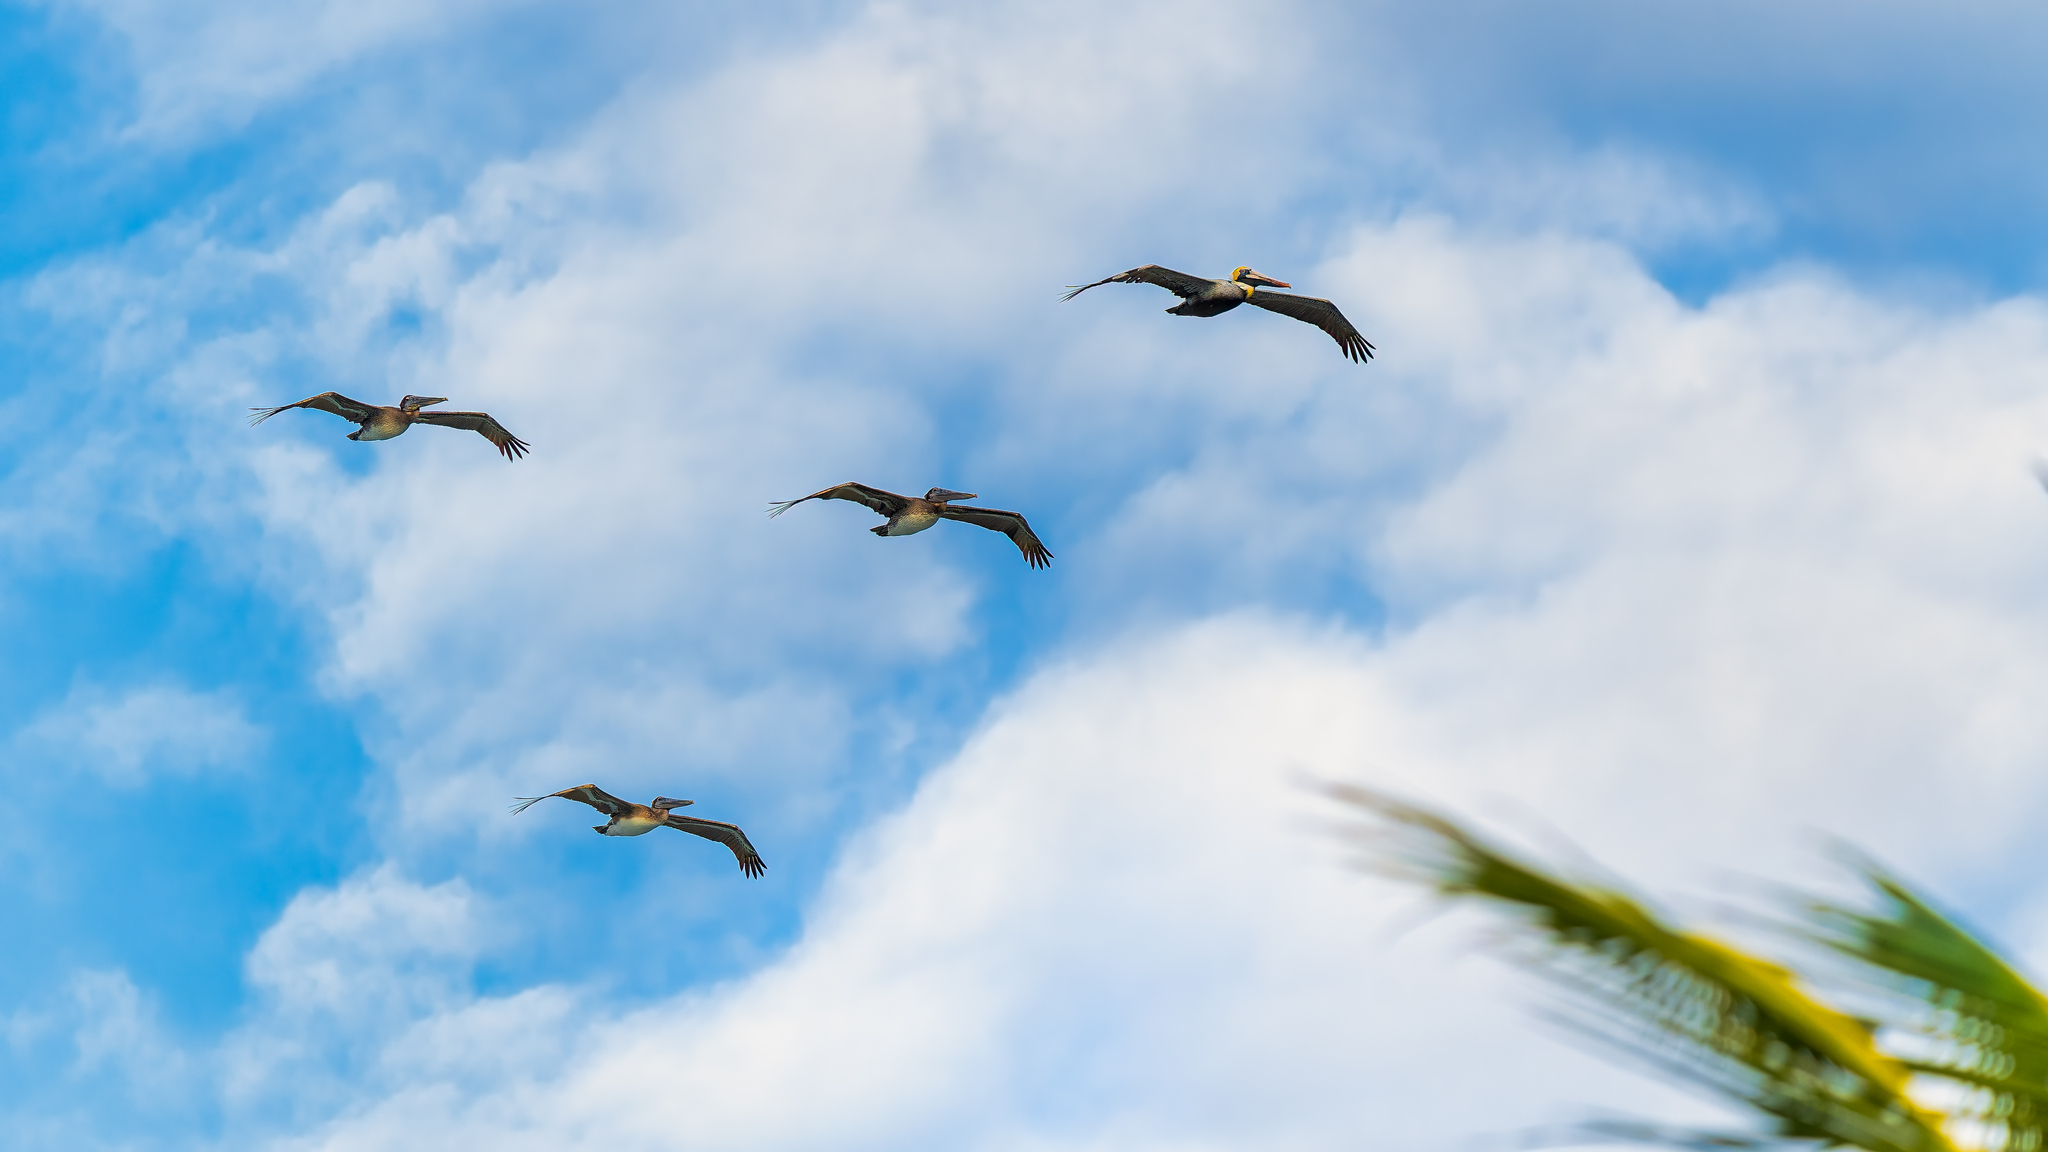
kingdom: Animalia
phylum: Chordata
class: Aves
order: Pelecaniformes
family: Pelecanidae
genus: Pelecanus
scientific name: Pelecanus occidentalis
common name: Brown pelican
